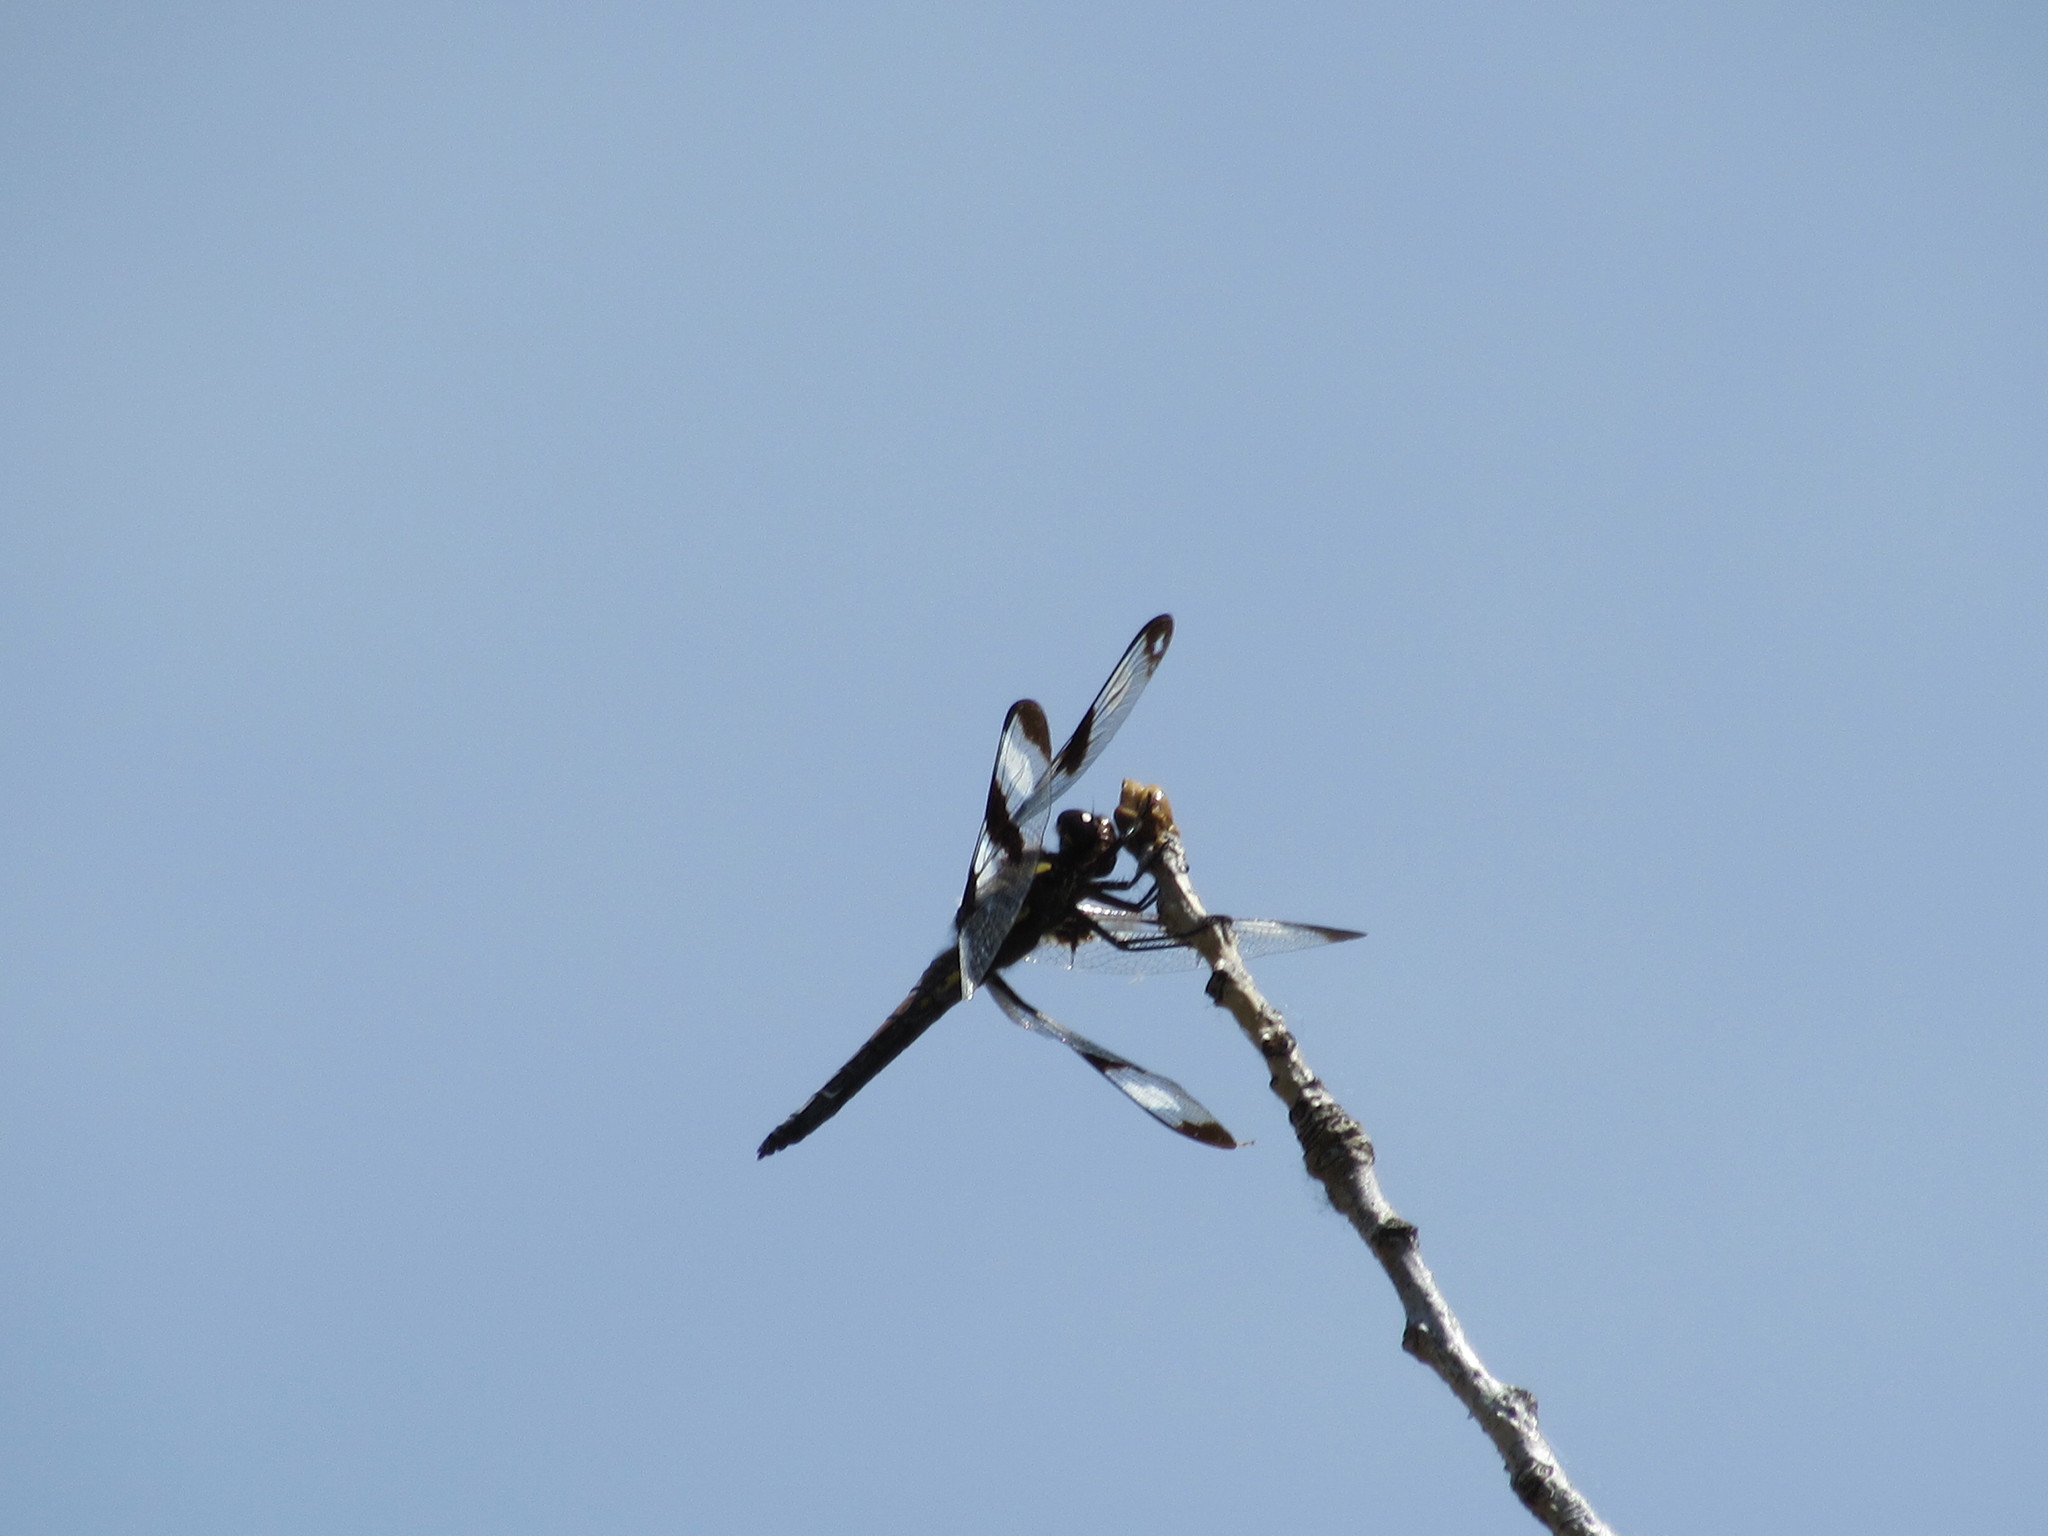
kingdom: Animalia
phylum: Arthropoda
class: Insecta
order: Odonata
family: Libellulidae
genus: Libellula
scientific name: Libellula pulchella
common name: Twelve-spotted skimmer
